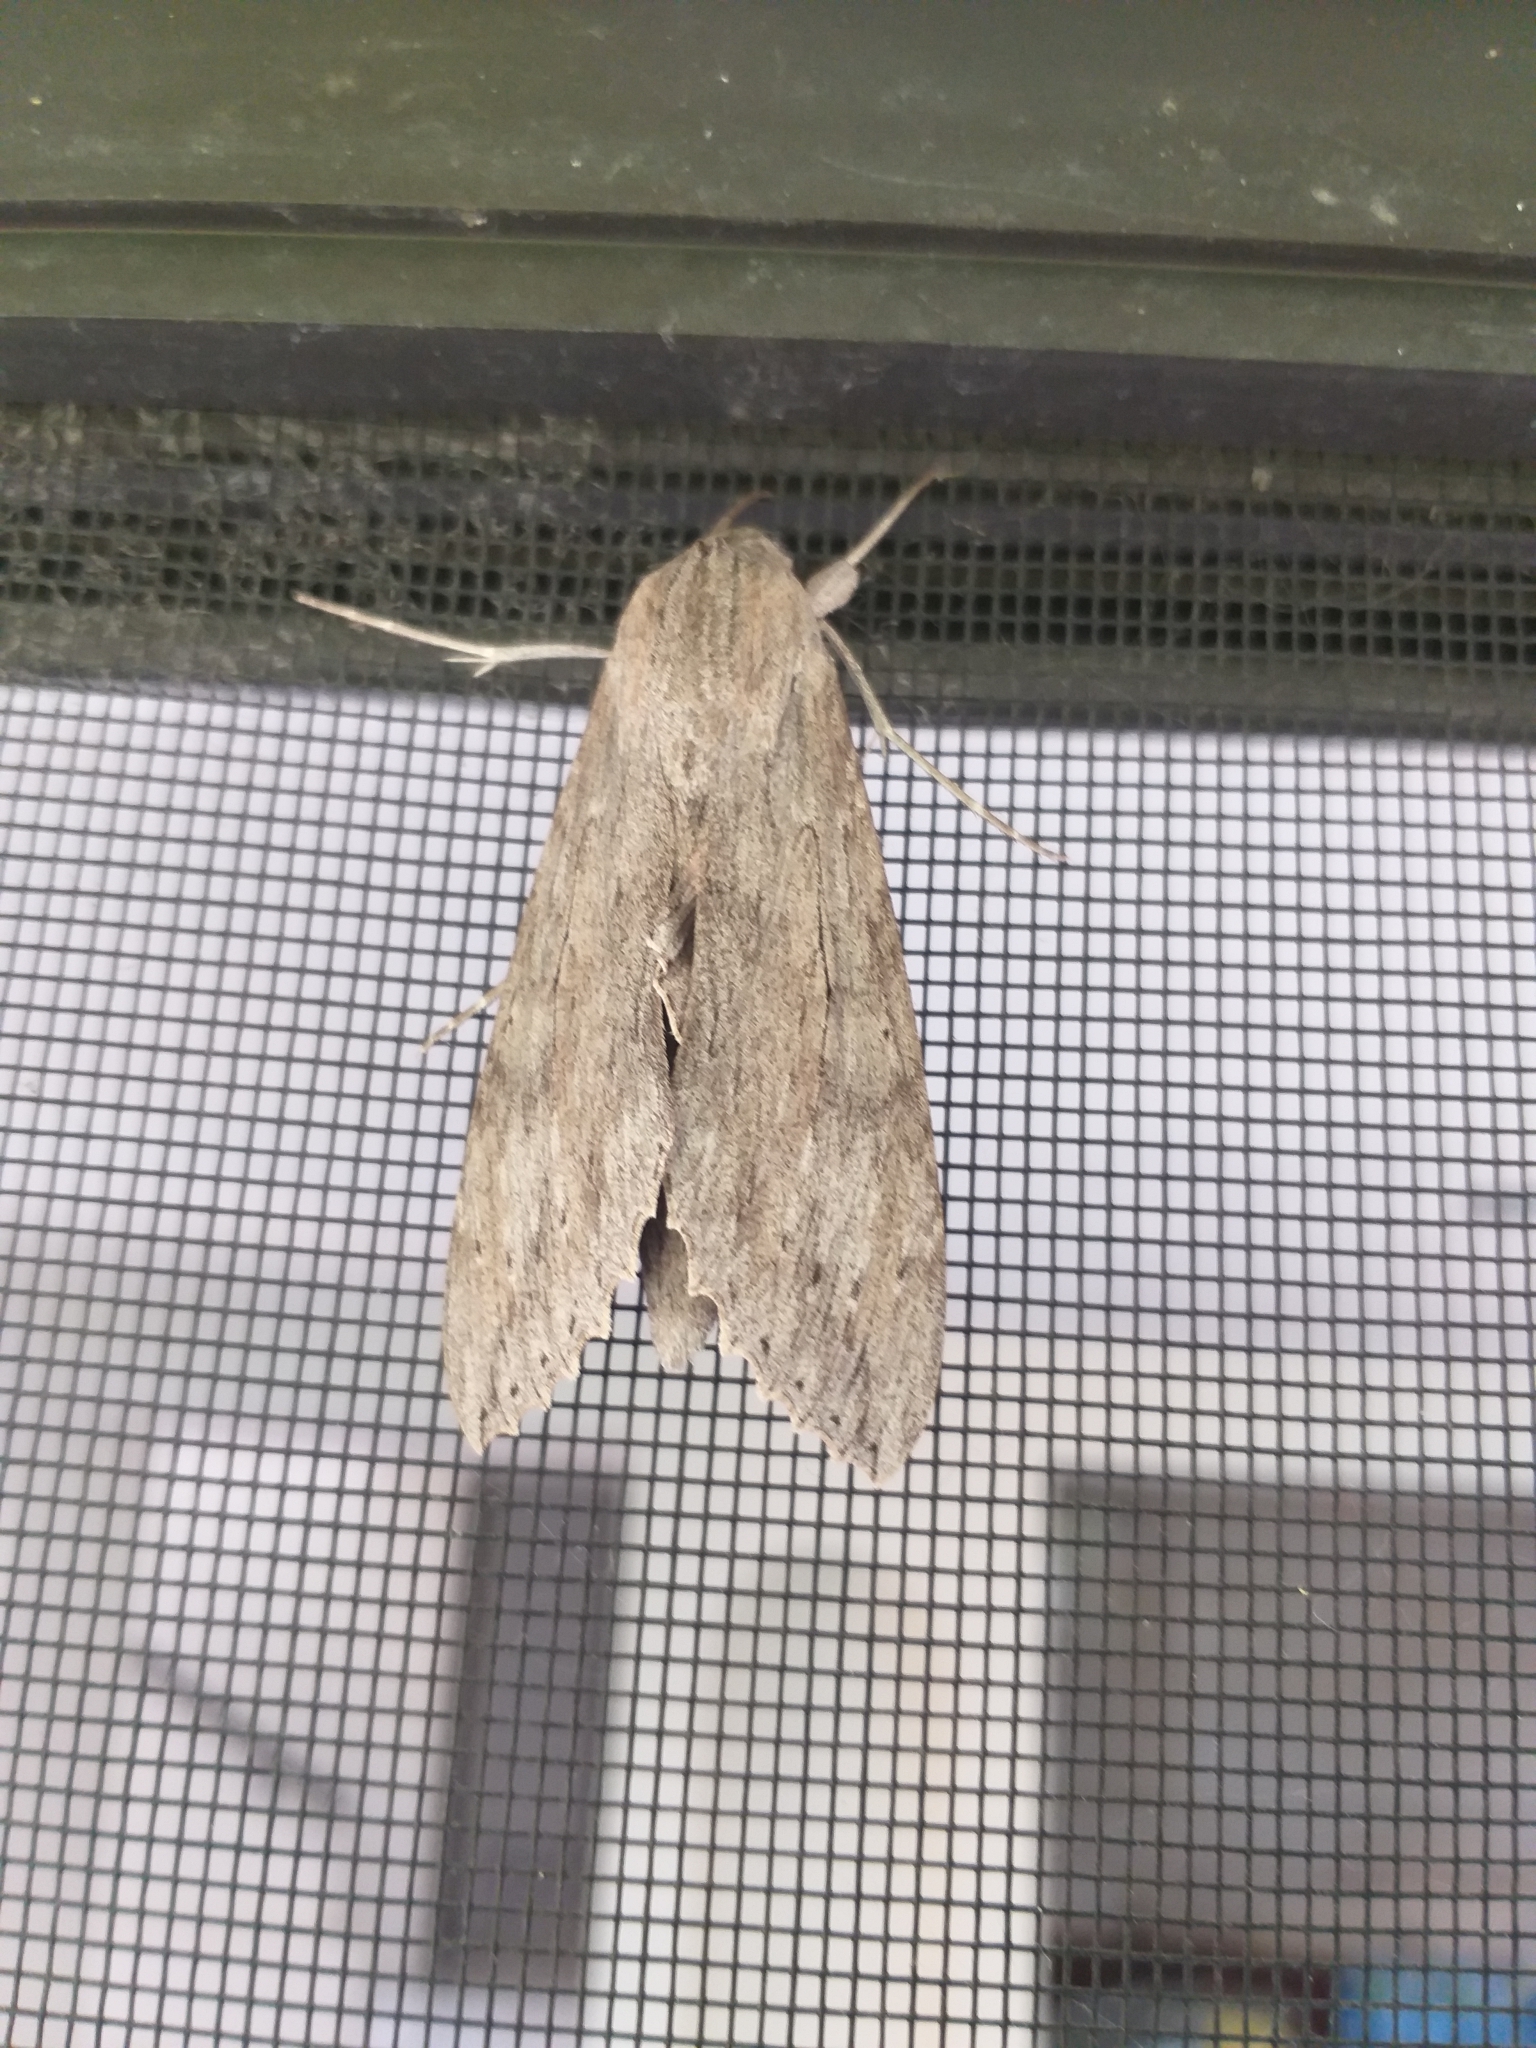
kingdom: Animalia
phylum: Arthropoda
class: Insecta
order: Lepidoptera
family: Sphingidae
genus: Erinnyis
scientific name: Erinnyis ello
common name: Ello sphinx
